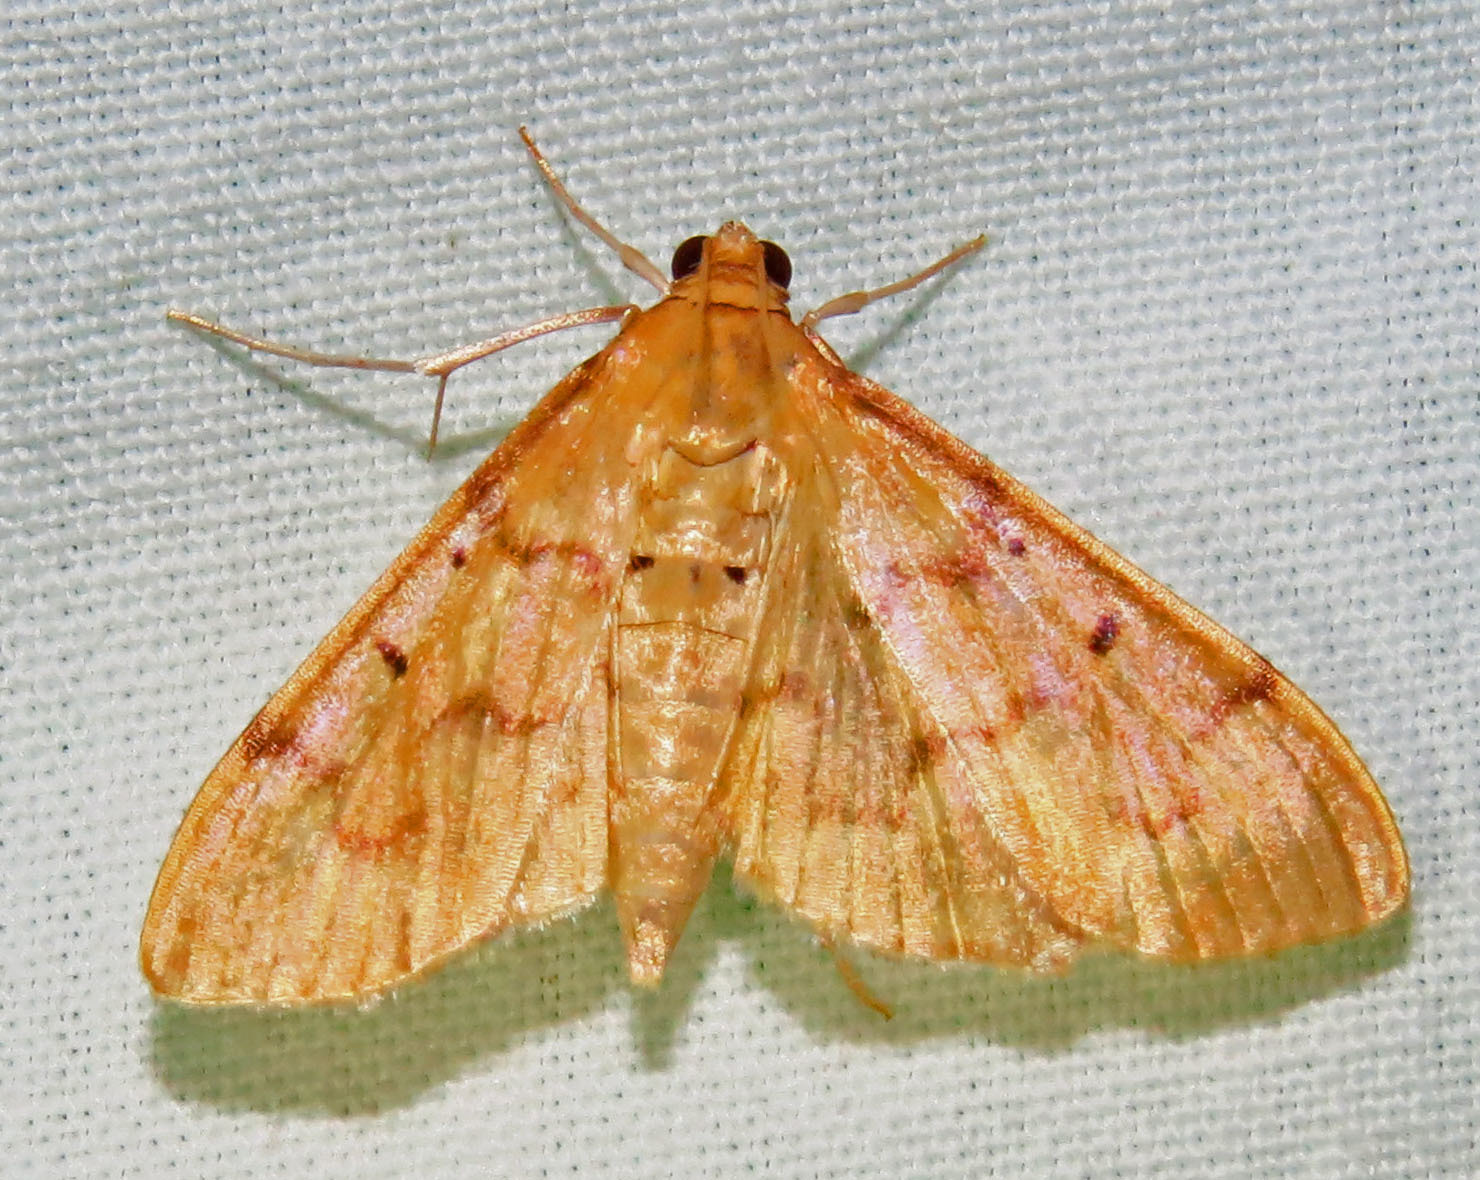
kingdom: Animalia
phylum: Arthropoda
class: Insecta
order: Lepidoptera
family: Crambidae
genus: Herpetogramma
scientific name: Herpetogramma bipunctalis
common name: Southern beet webworm
